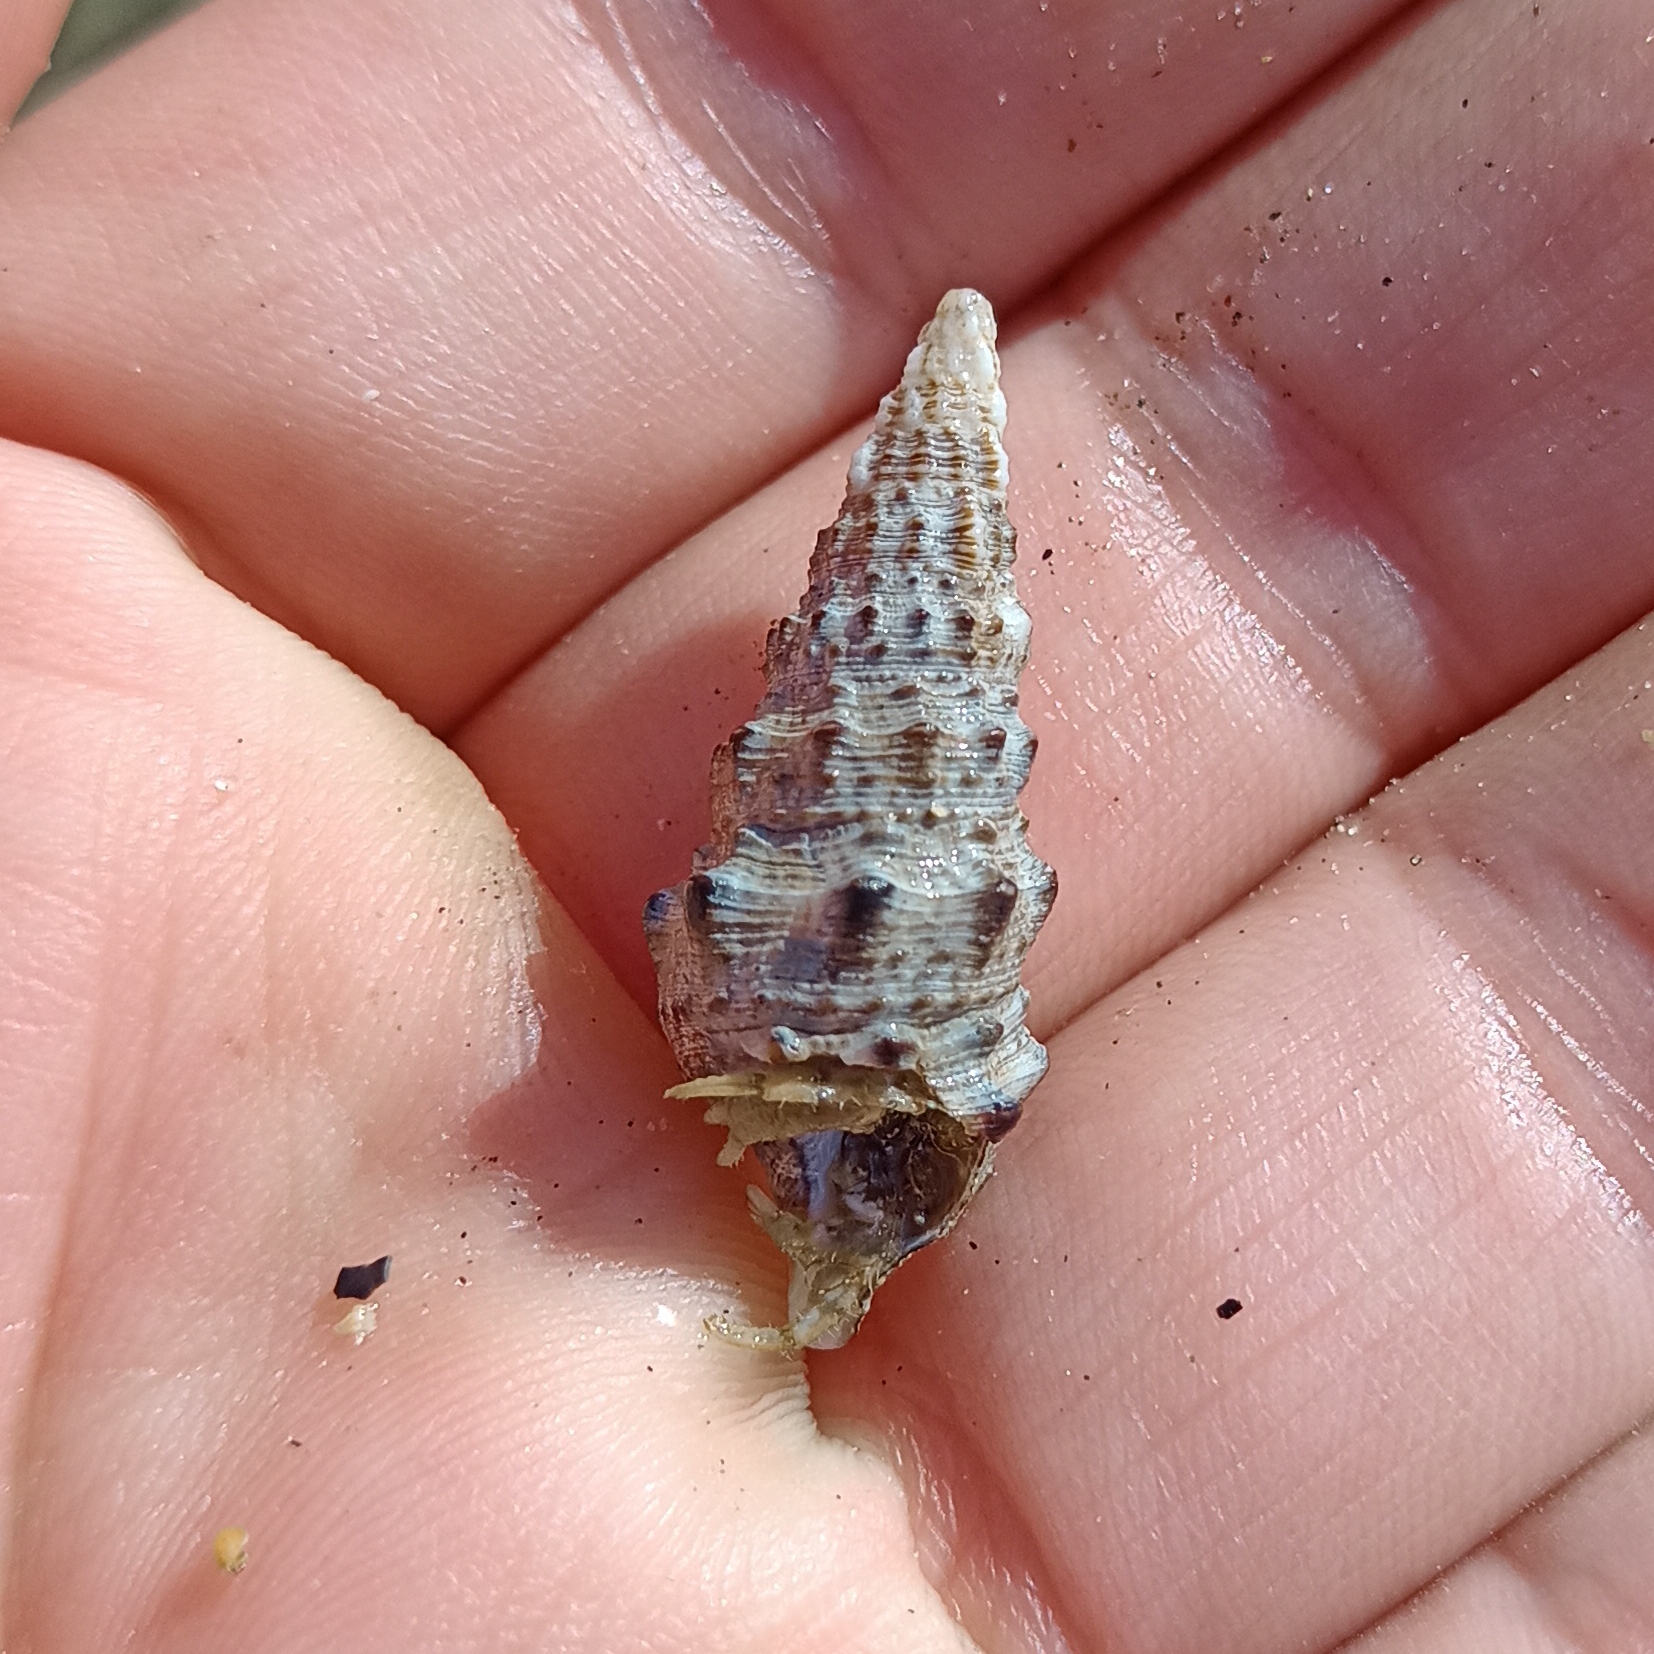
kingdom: Animalia
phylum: Mollusca
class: Gastropoda
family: Cerithiidae
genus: Cerithium
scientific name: Cerithium atratum
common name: Dark cerith
